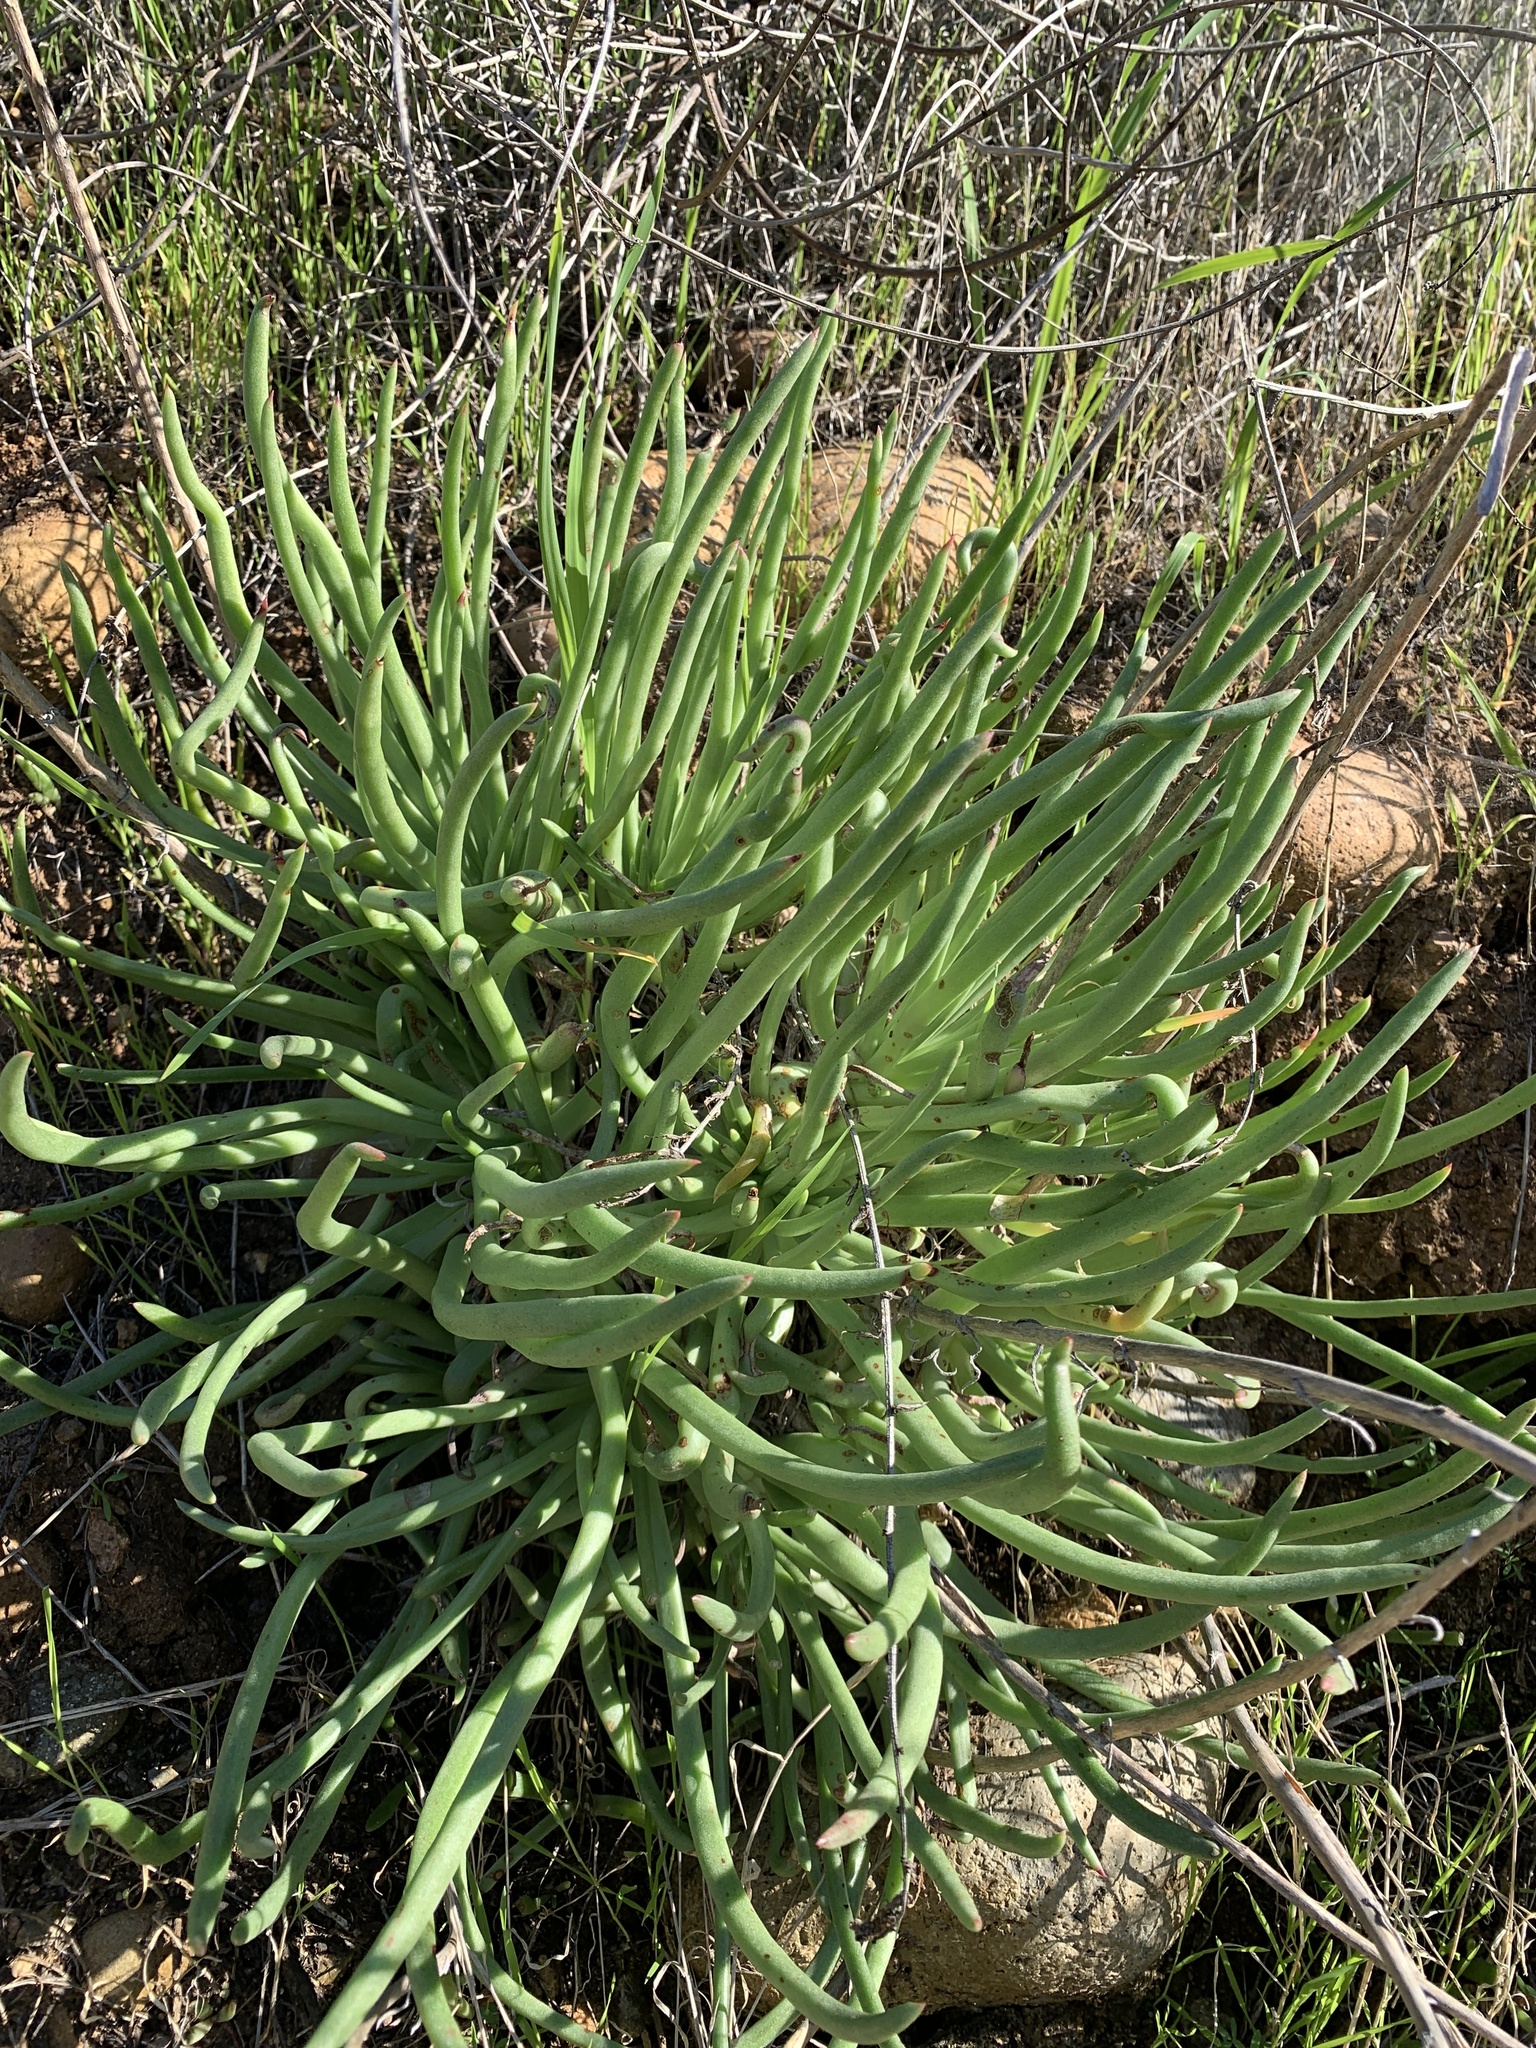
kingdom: Plantae
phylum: Tracheophyta
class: Magnoliopsida
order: Saxifragales
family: Crassulaceae
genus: Dudleya
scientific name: Dudleya edulis
